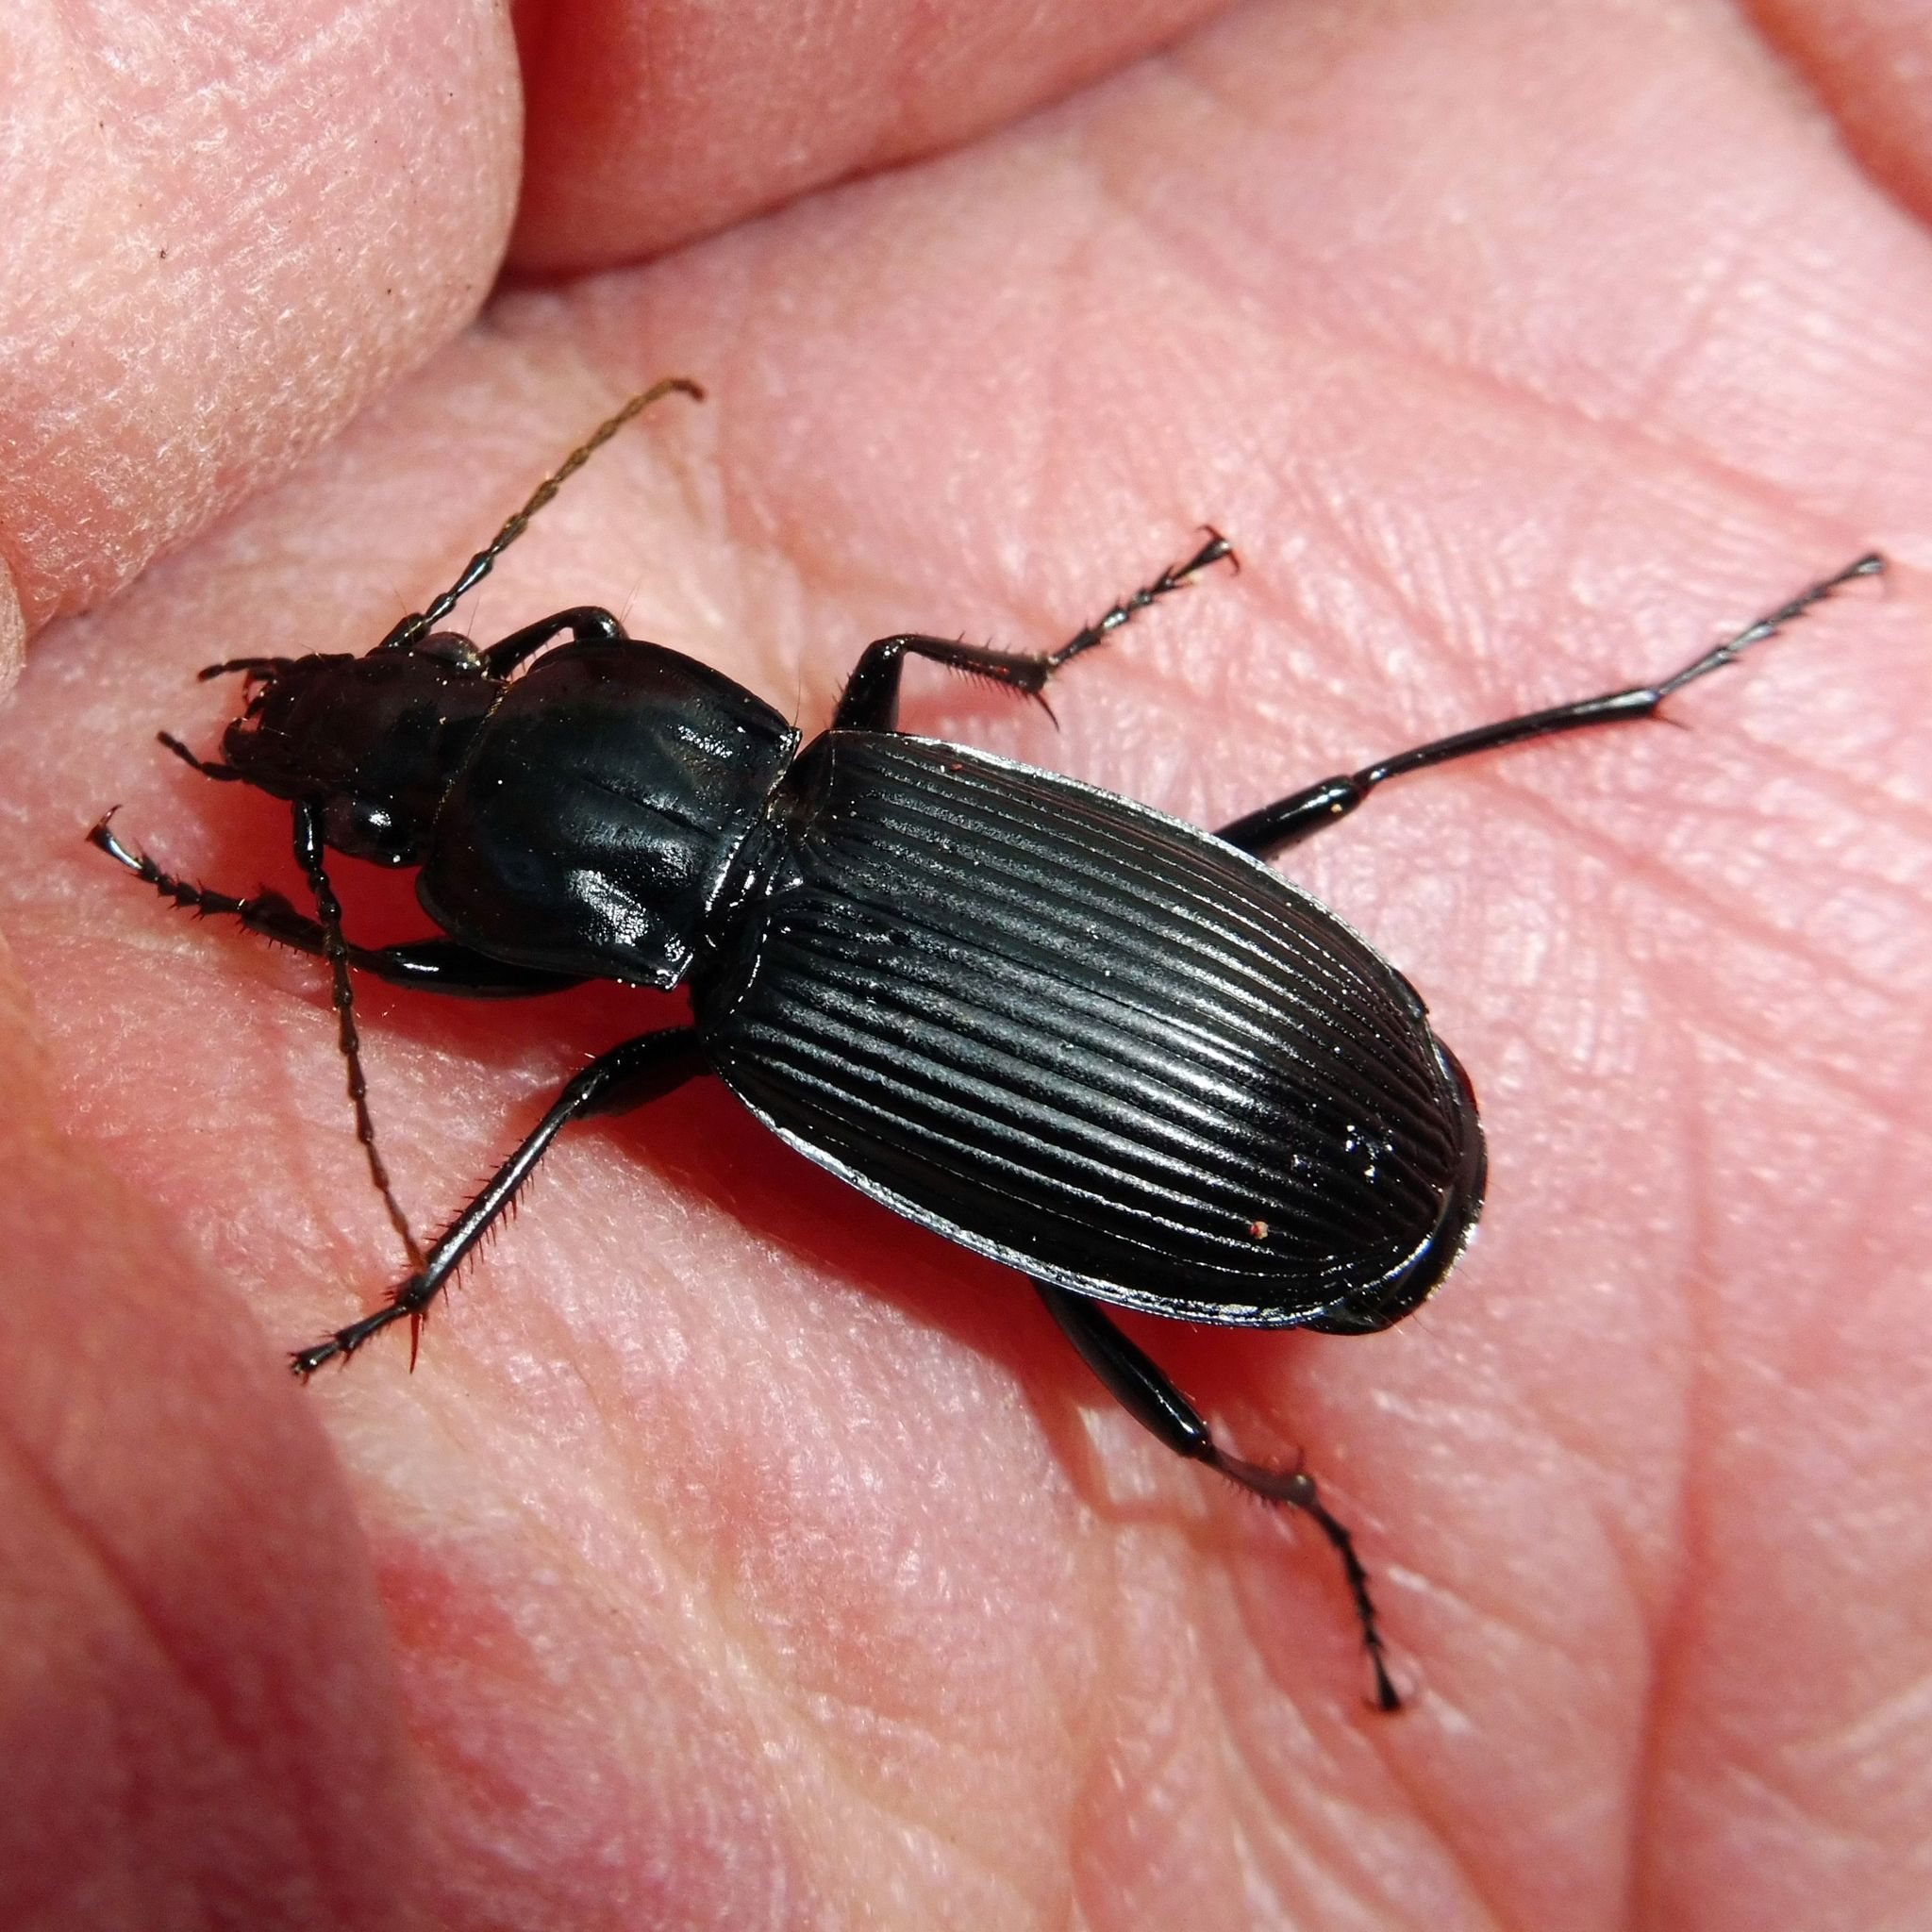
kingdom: Animalia
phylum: Arthropoda
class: Insecta
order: Coleoptera
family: Carabidae
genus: Pterostichus
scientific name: Pterostichus niger
